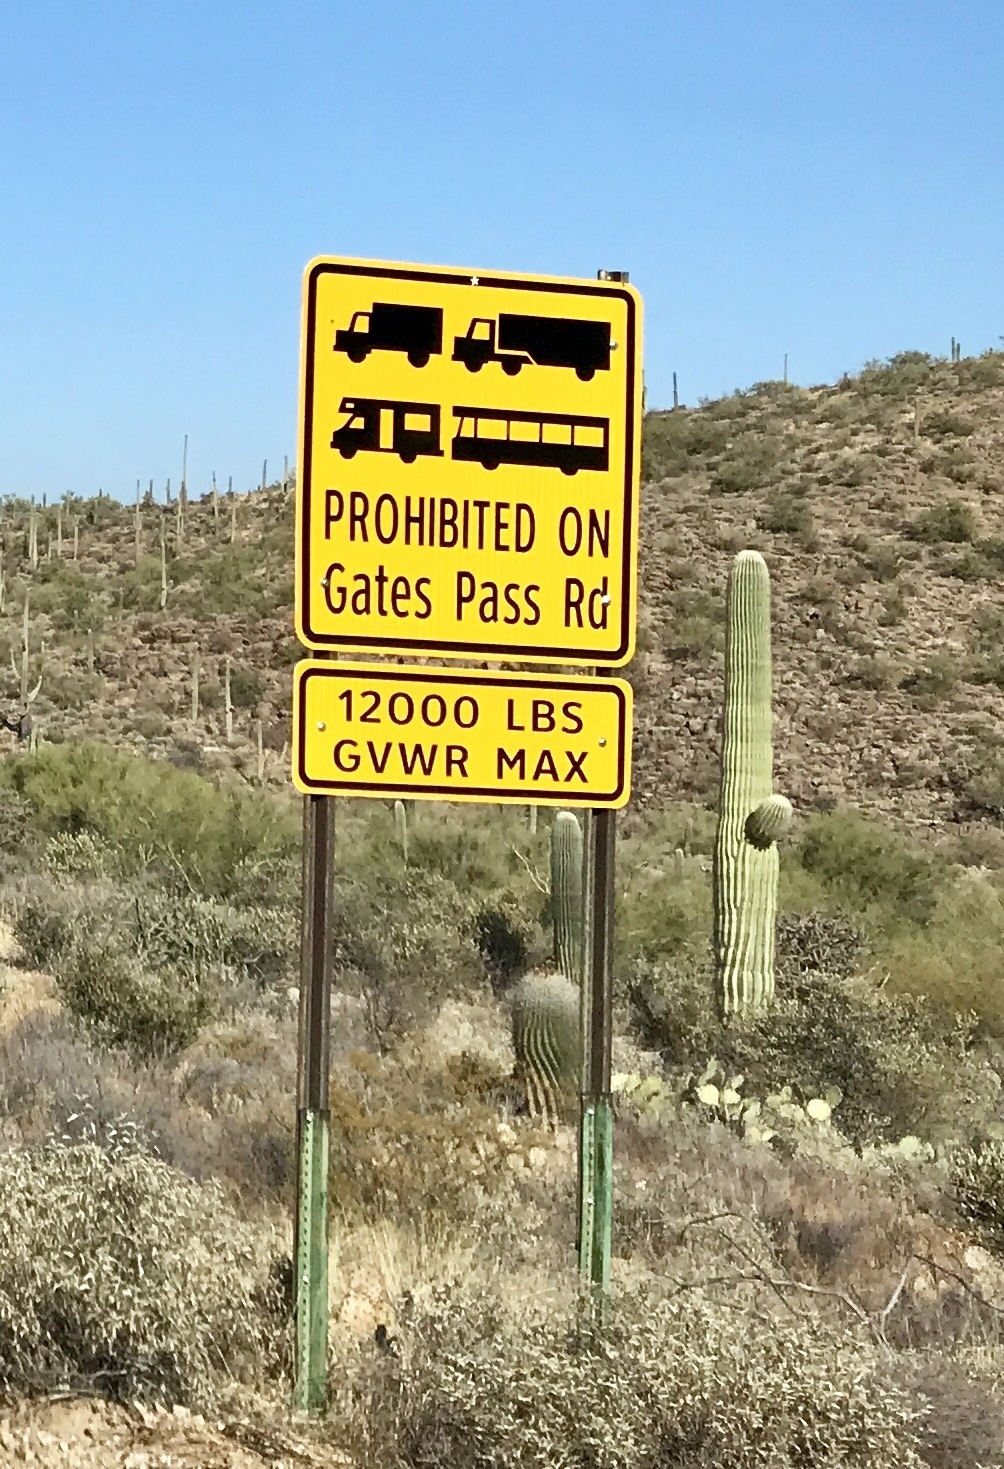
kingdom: Plantae
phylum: Tracheophyta
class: Magnoliopsida
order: Caryophyllales
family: Cactaceae
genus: Carnegiea
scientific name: Carnegiea gigantea
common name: Saguaro
